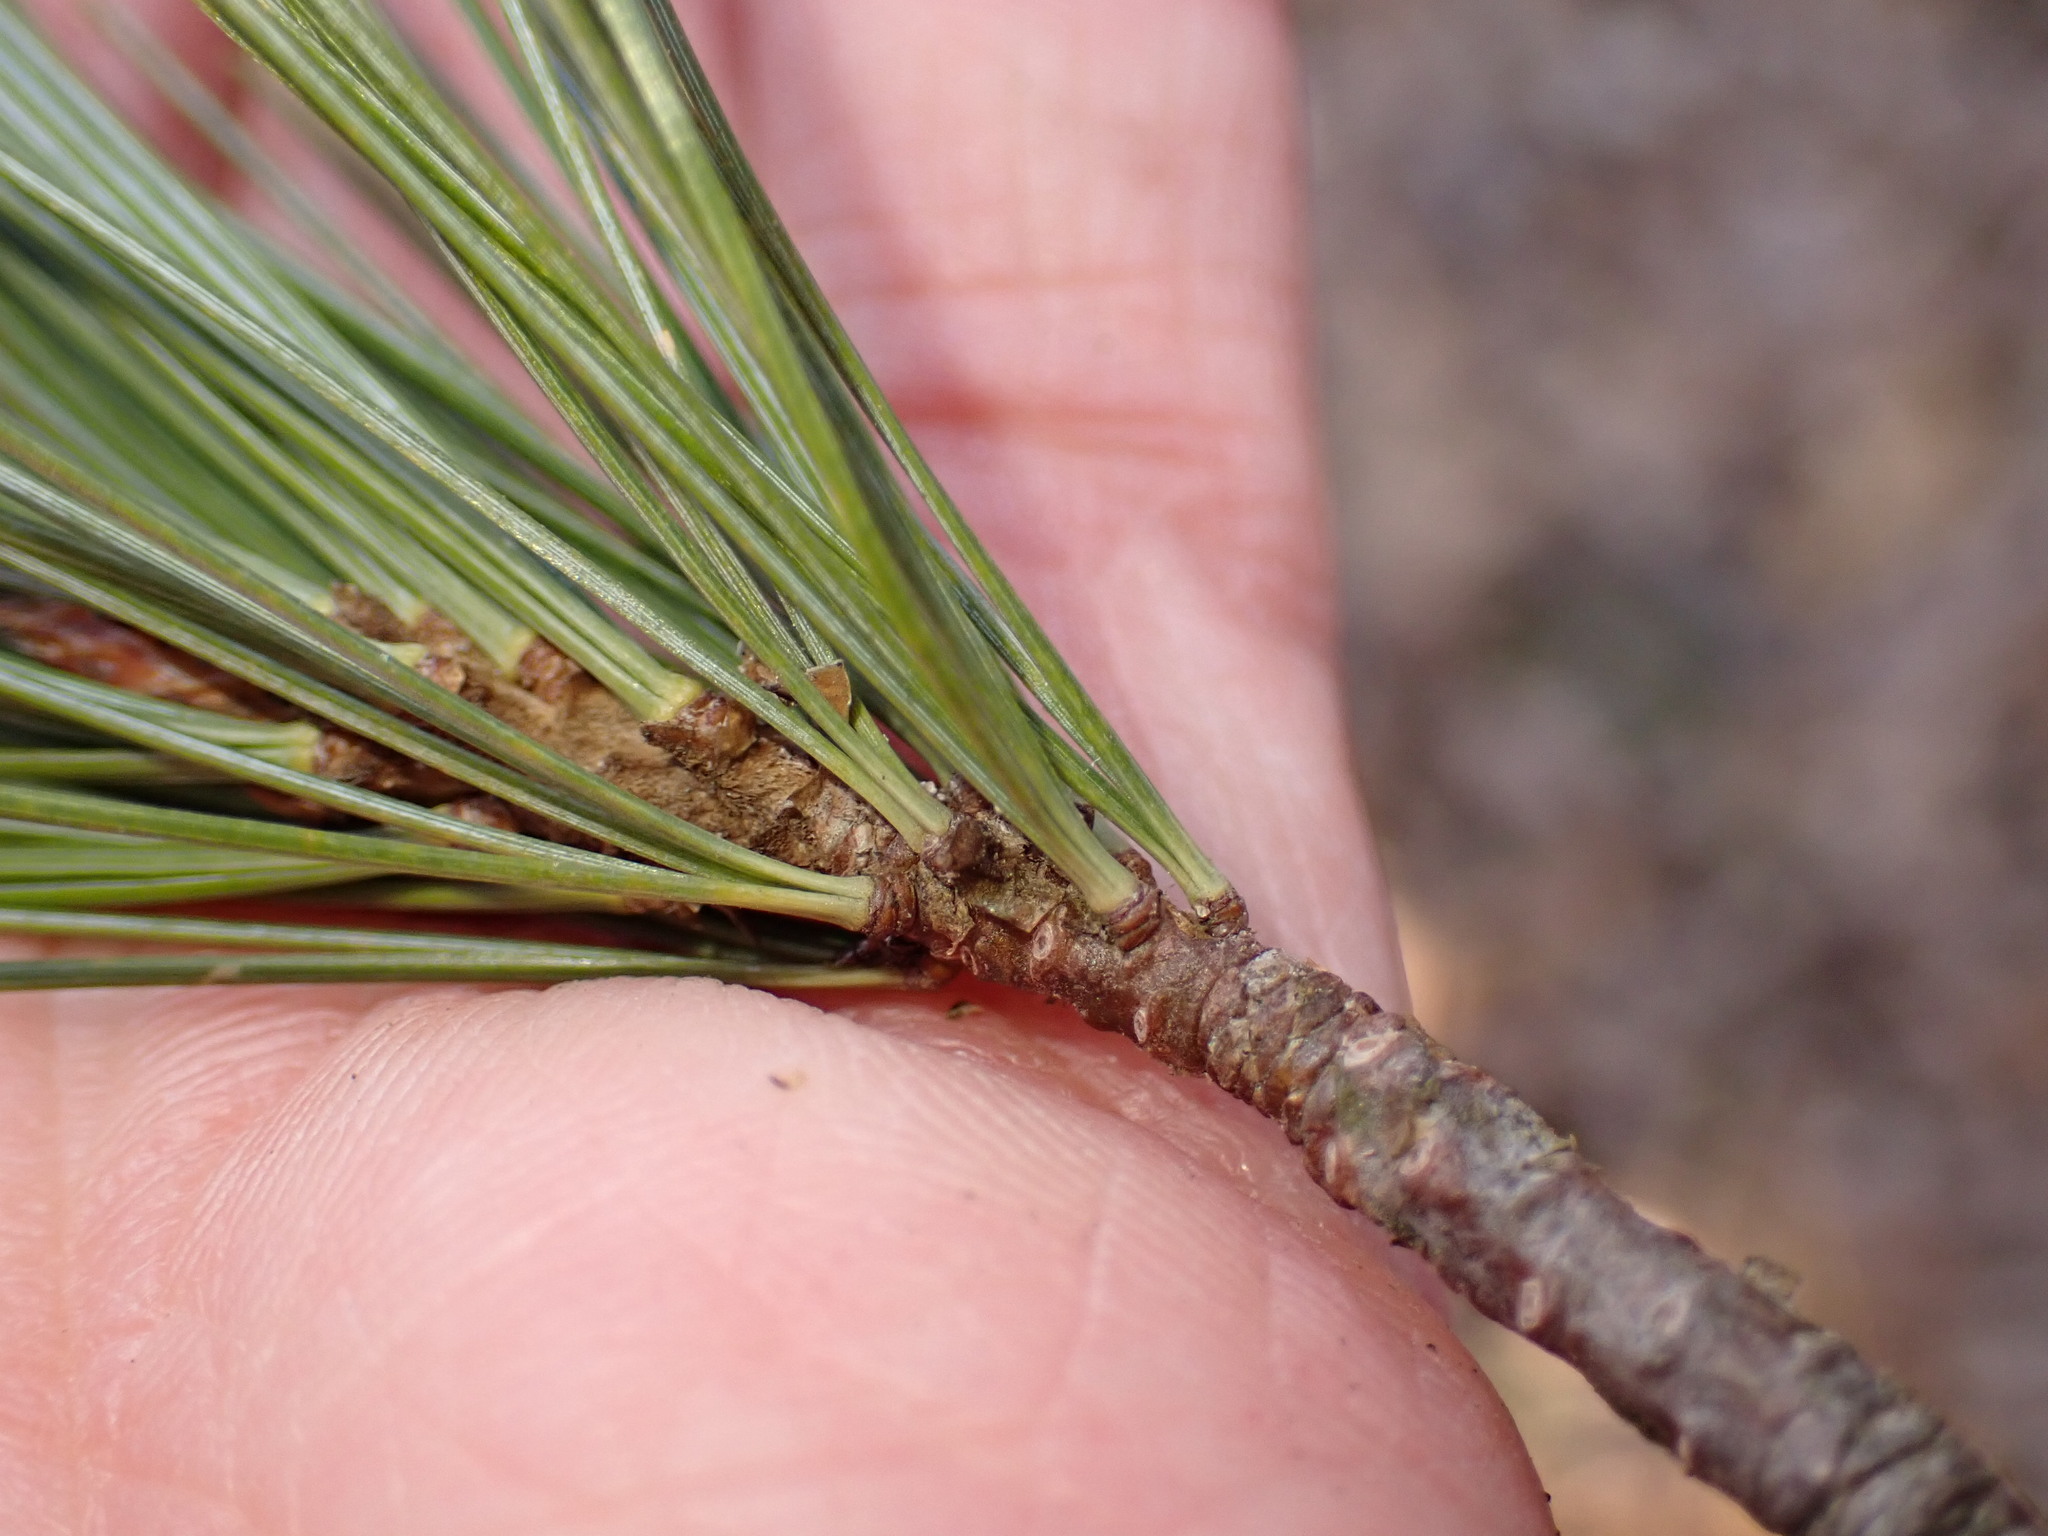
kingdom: Plantae
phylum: Tracheophyta
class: Pinopsida
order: Pinales
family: Pinaceae
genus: Pinus
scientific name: Pinus strobus
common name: Weymouth pine
